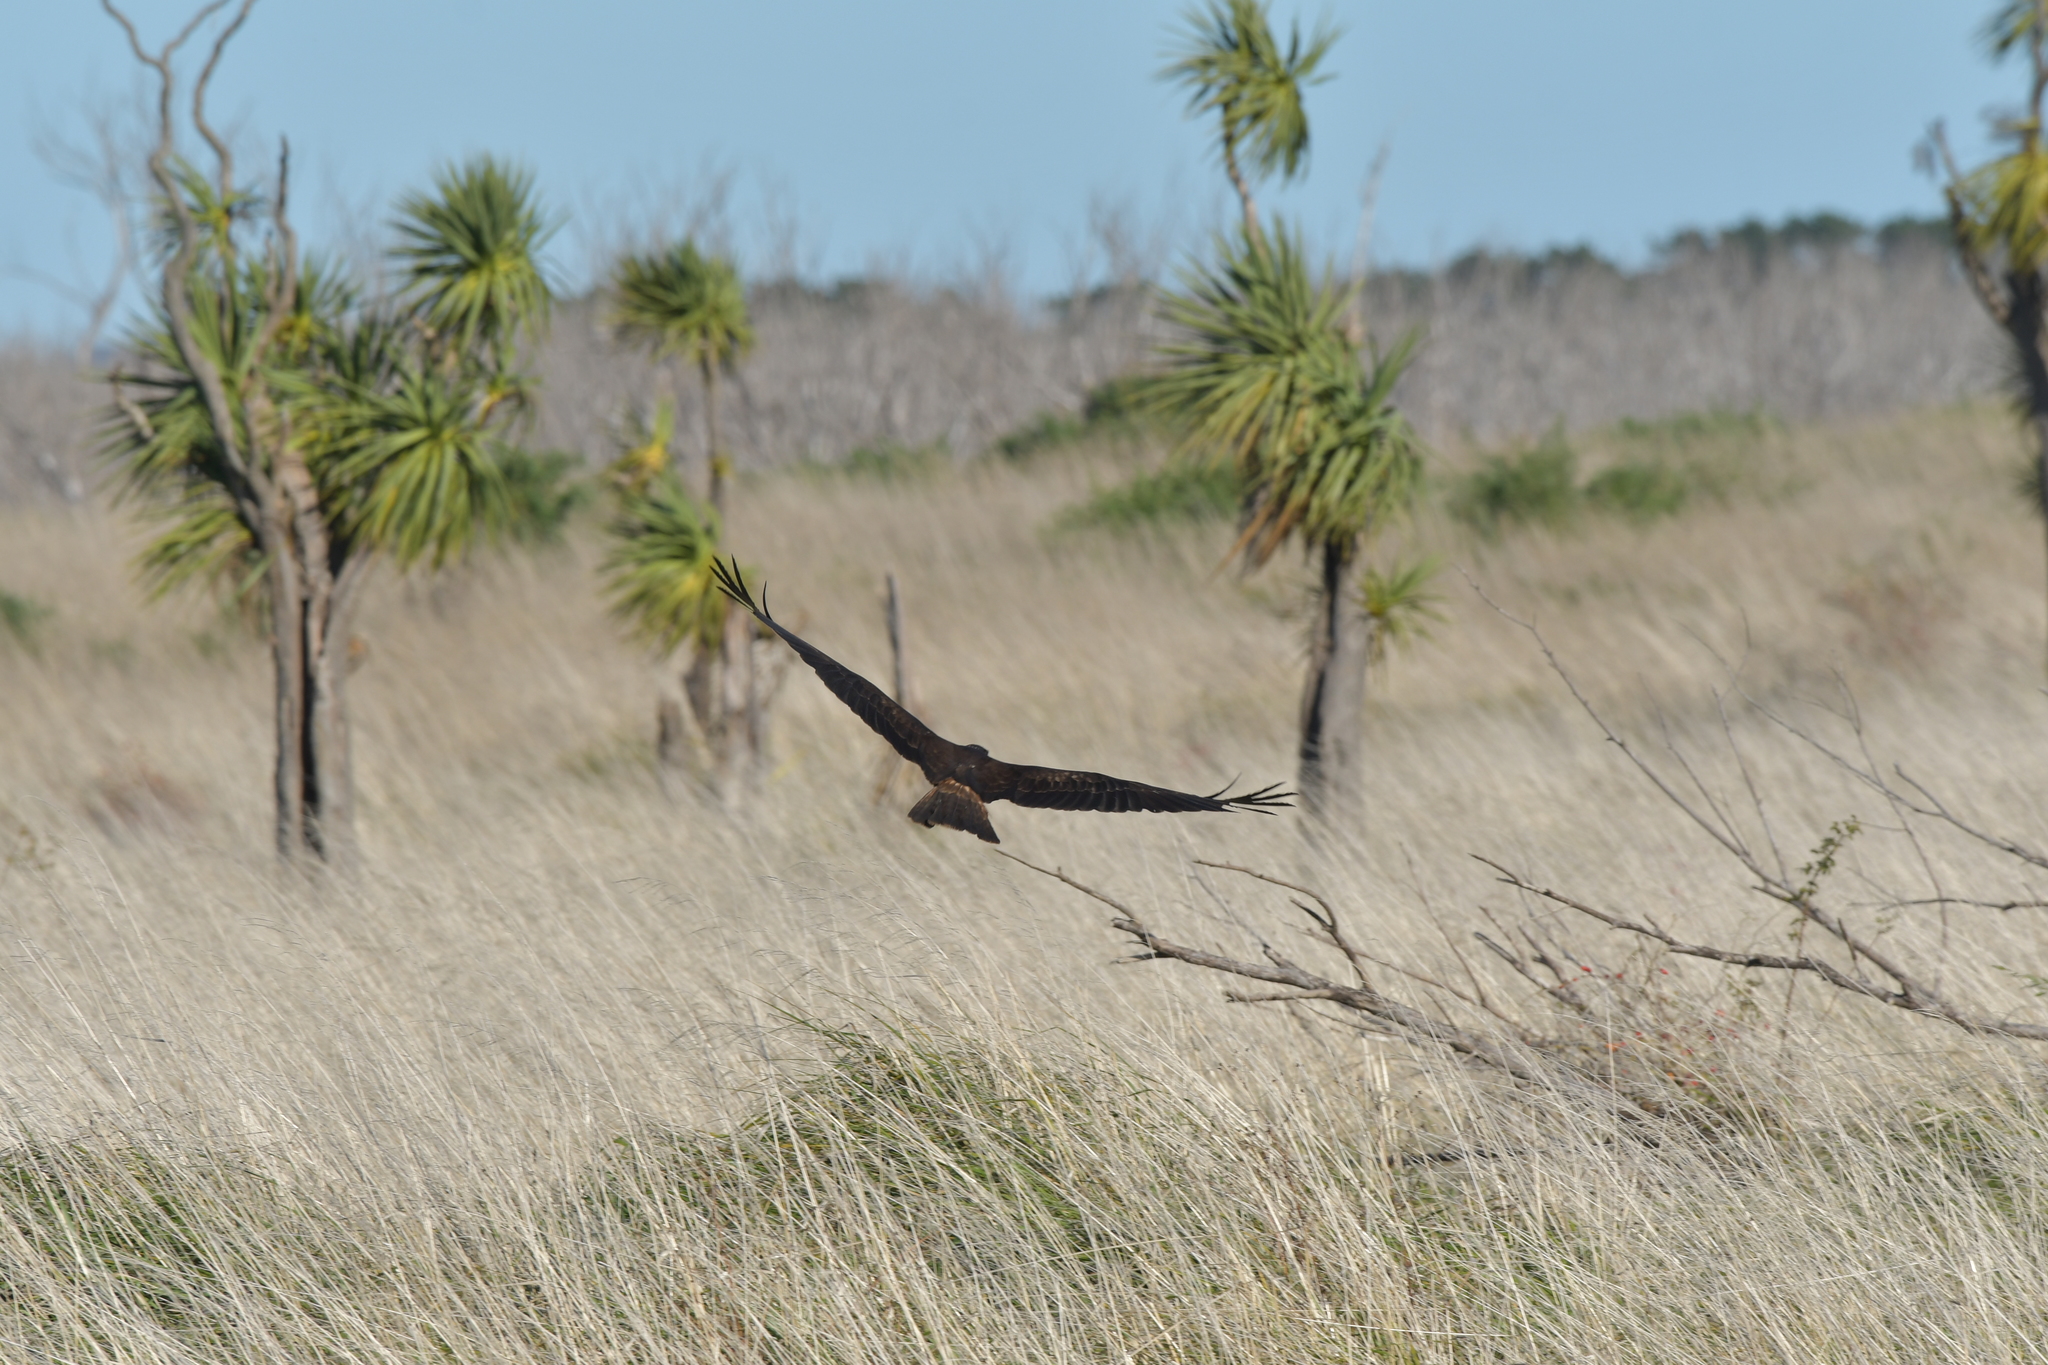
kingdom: Animalia
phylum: Chordata
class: Aves
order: Accipitriformes
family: Accipitridae
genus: Circus
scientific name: Circus approximans
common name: Swamp harrier
